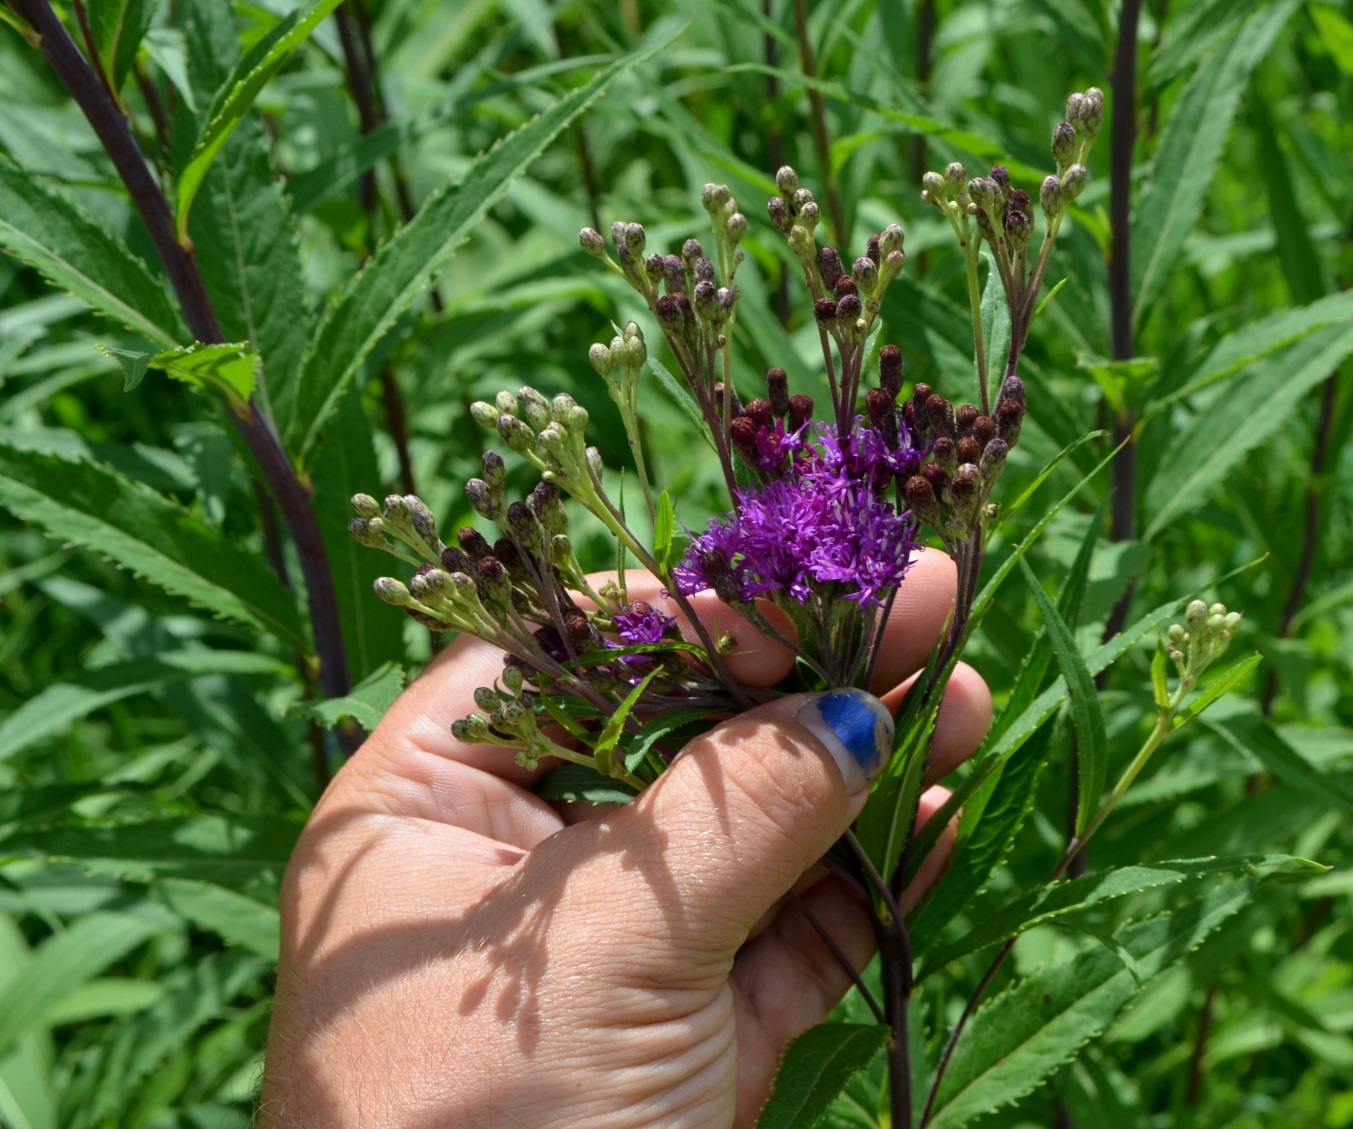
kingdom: Plantae
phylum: Tracheophyta
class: Magnoliopsida
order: Asterales
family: Asteraceae
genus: Vernonia
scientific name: Vernonia fasciculata
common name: Fascicled ironweed
